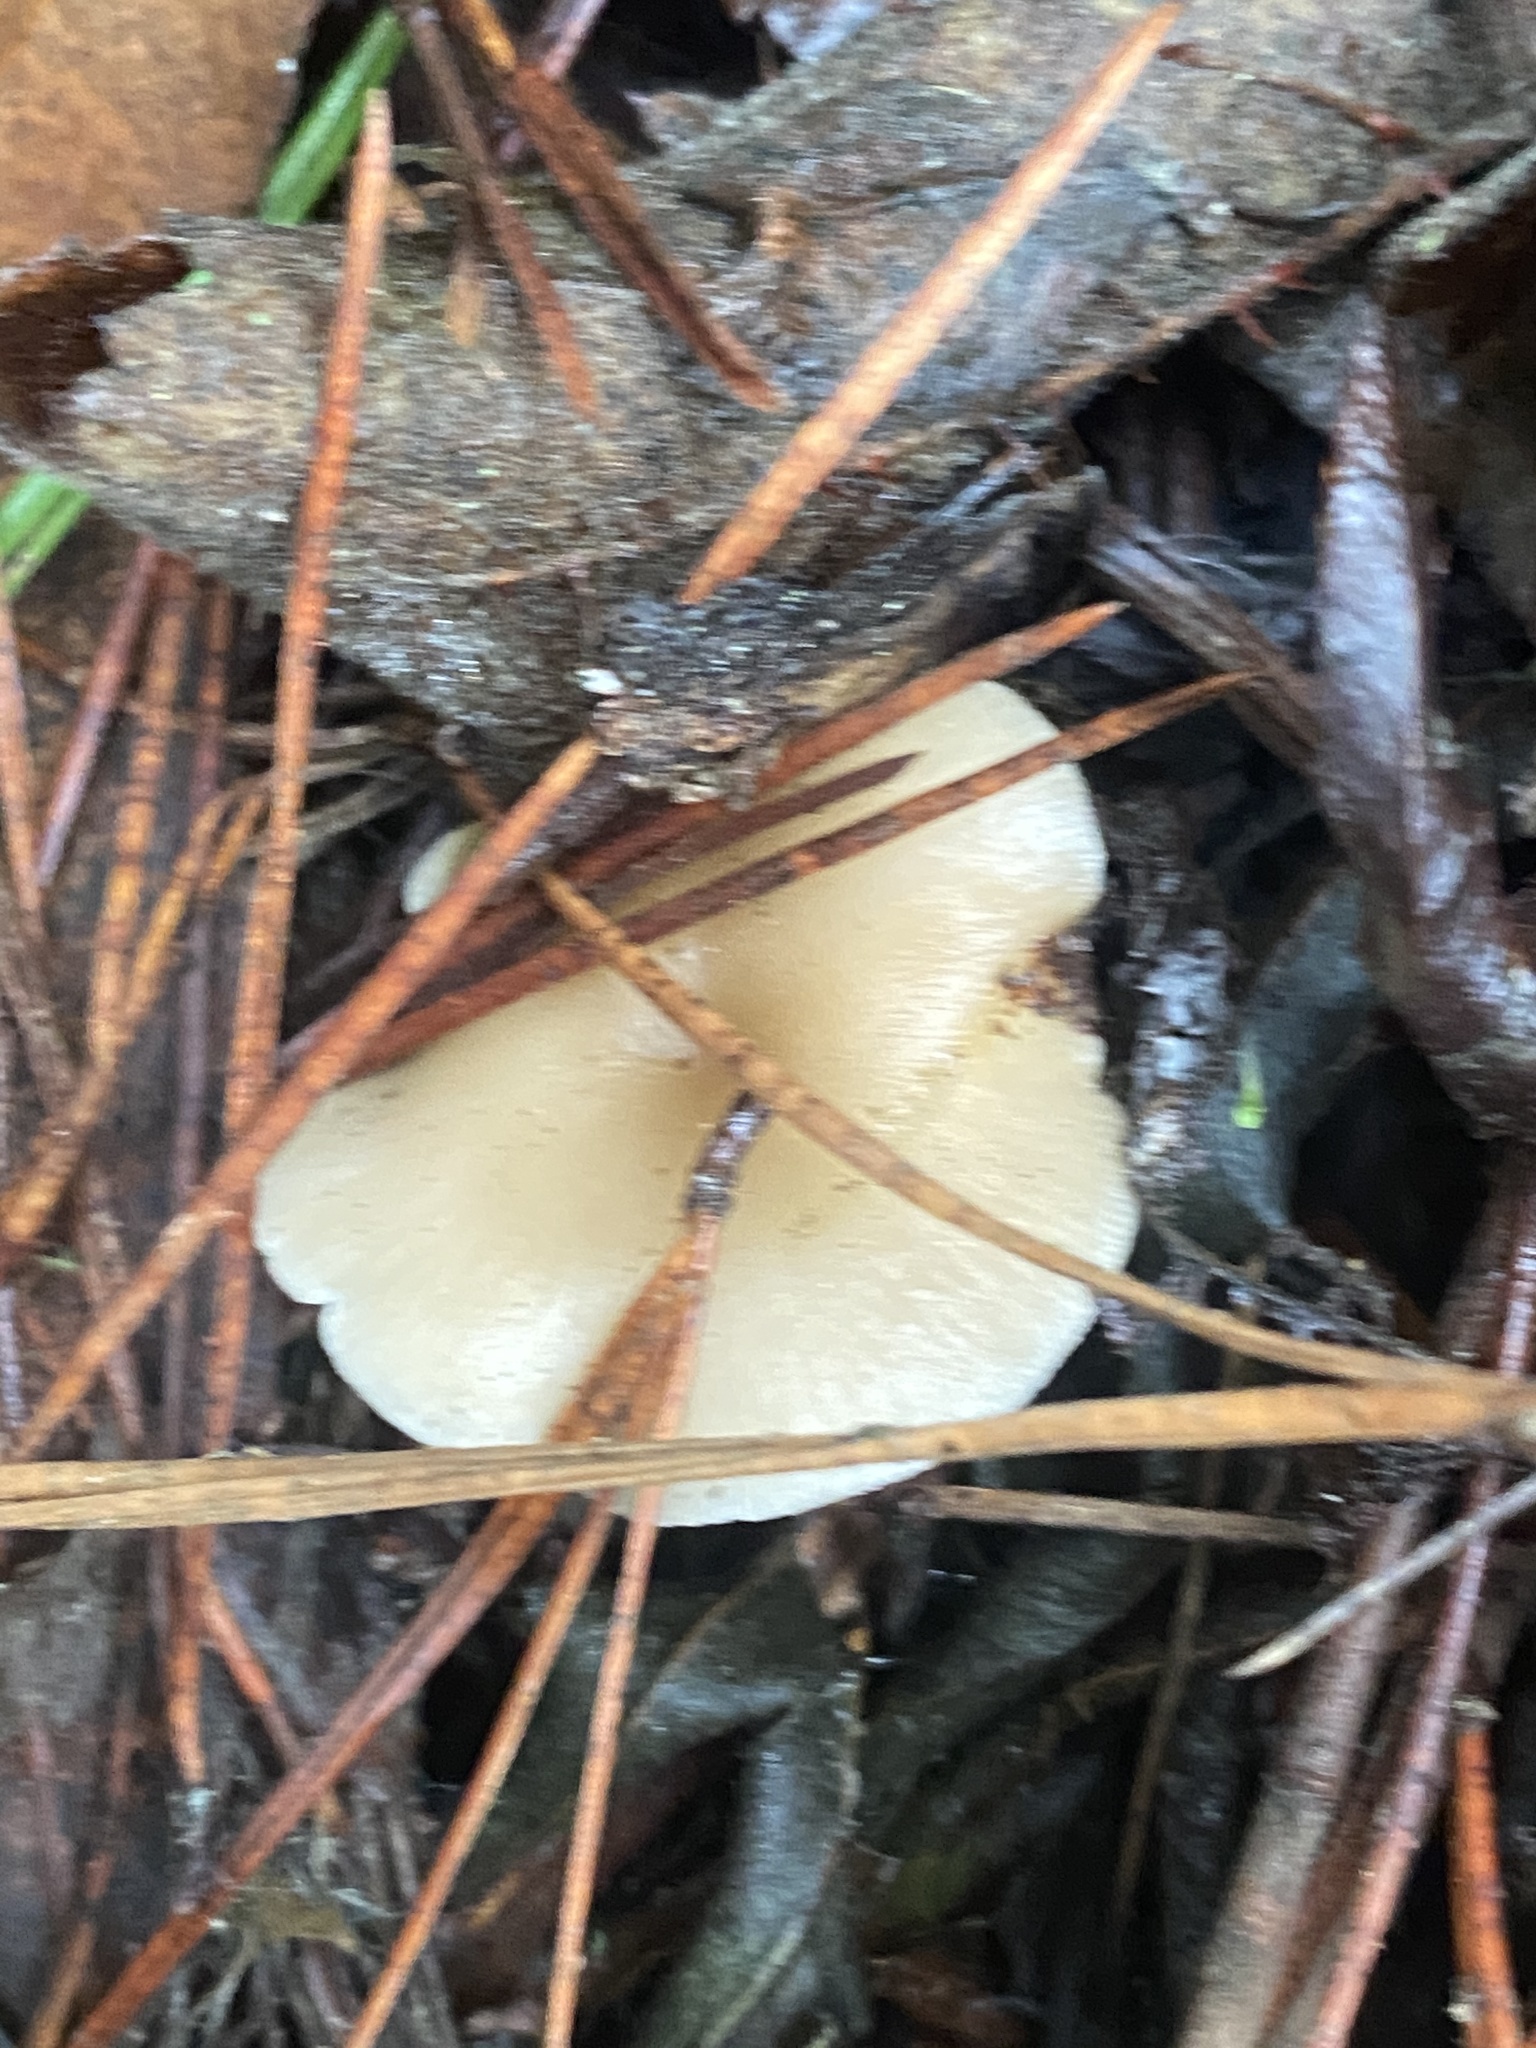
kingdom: Fungi
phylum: Basidiomycota
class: Agaricomycetes
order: Agaricales
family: Tricholomataceae
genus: Clitocybe
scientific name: Clitocybe fragrans
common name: Fragrant funnel
